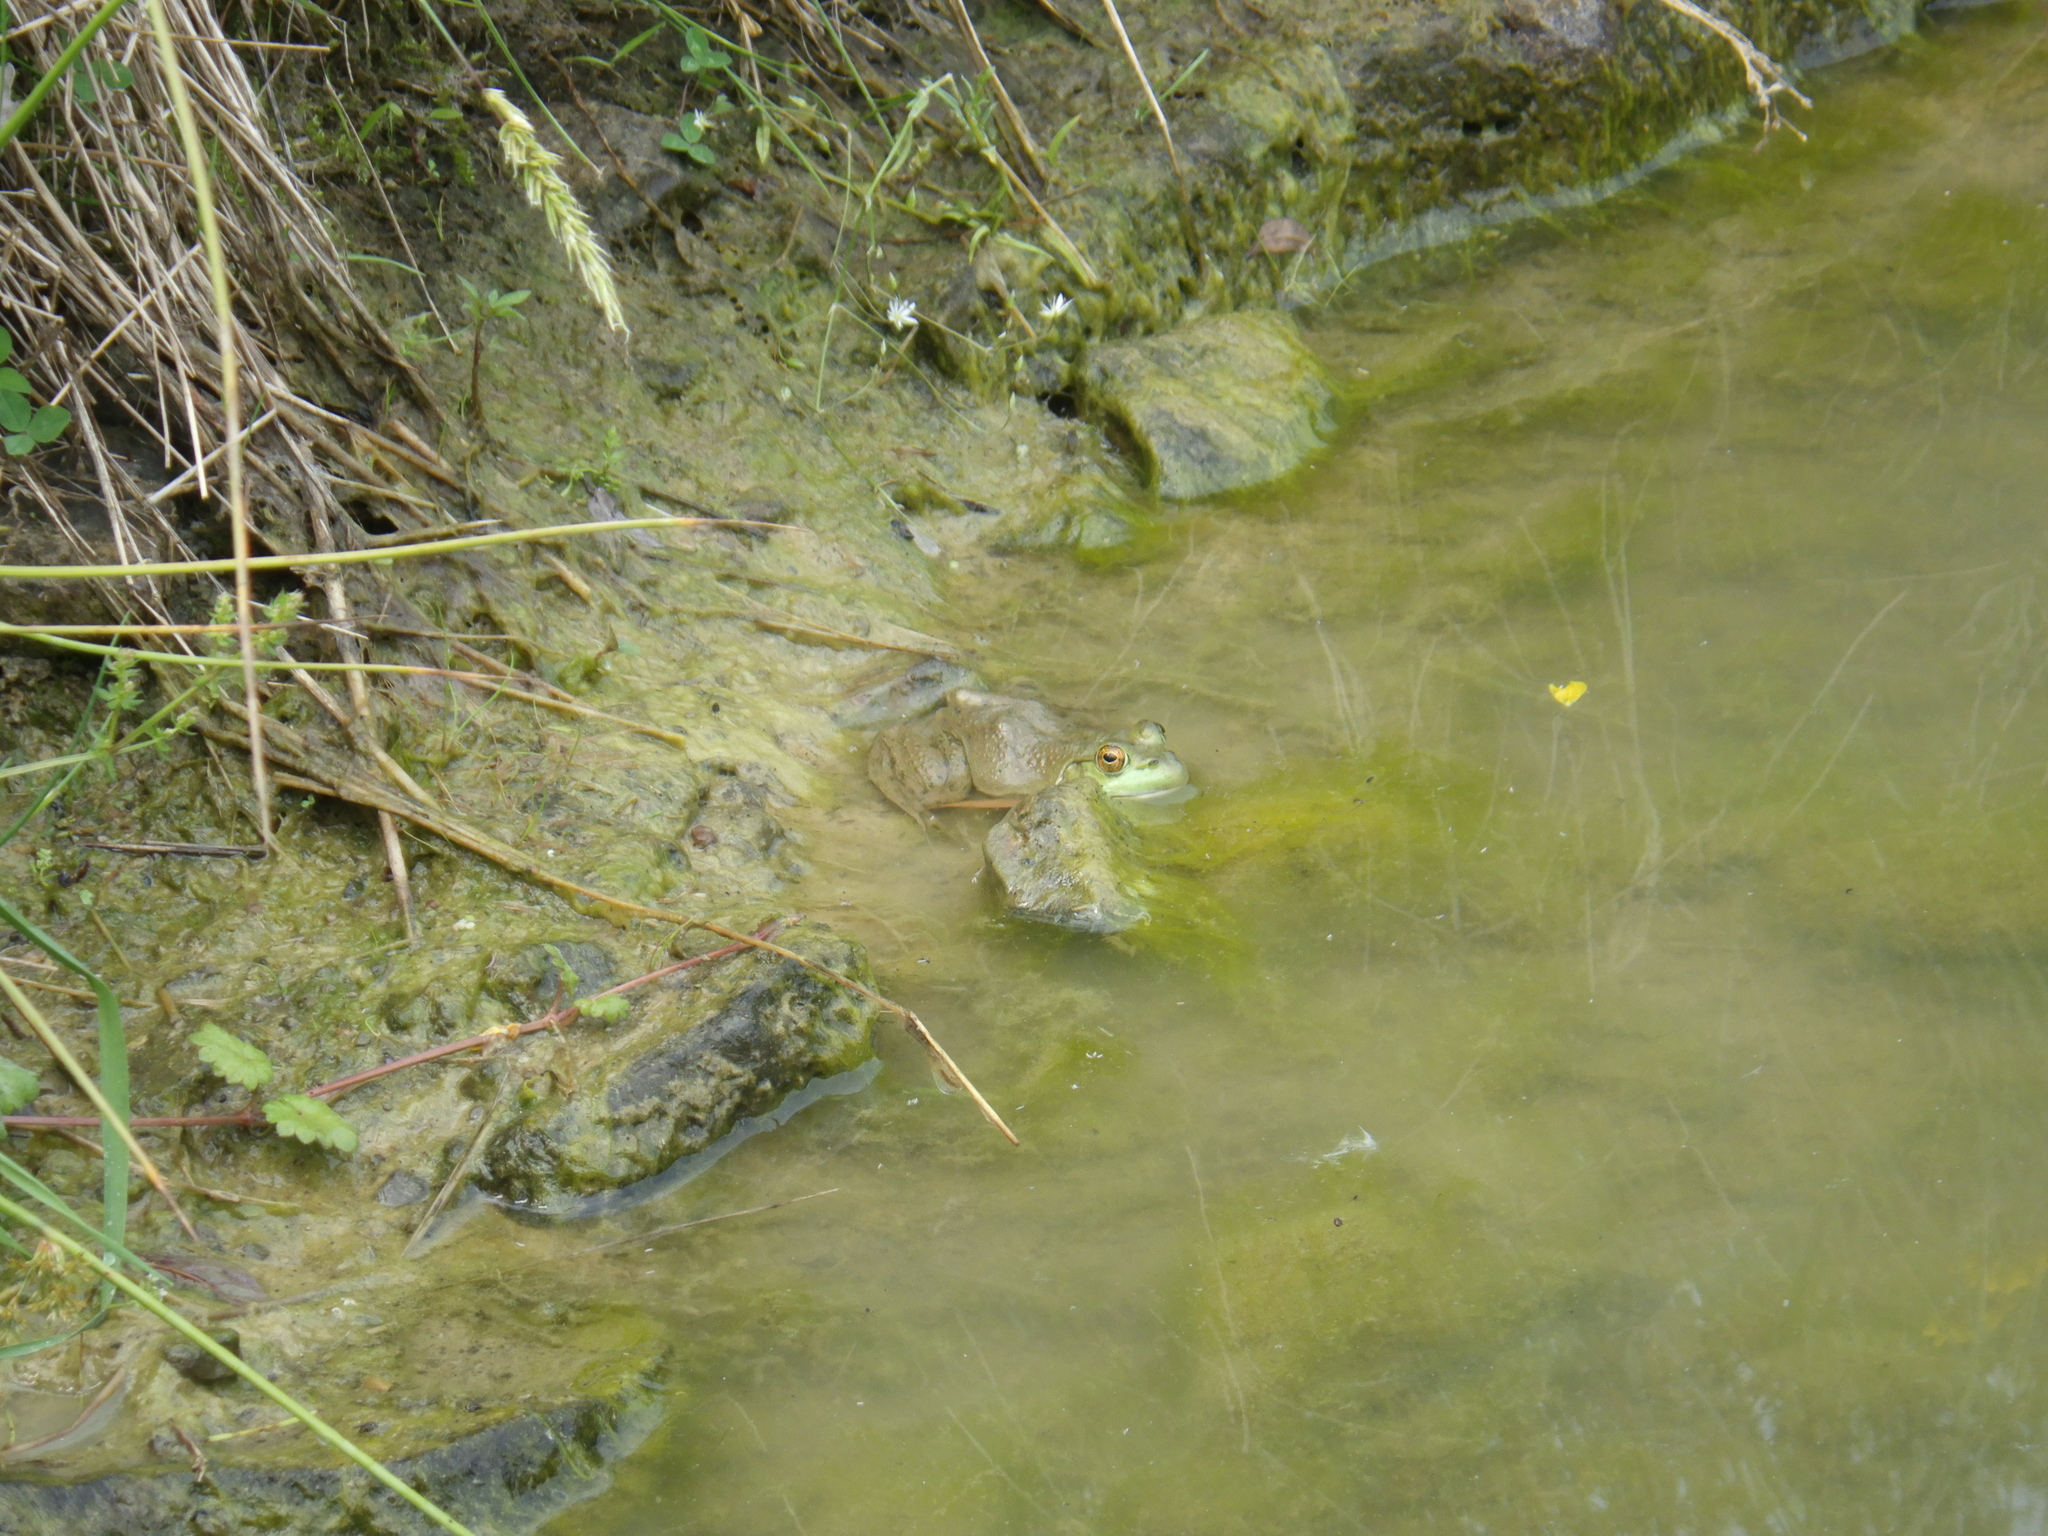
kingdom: Animalia
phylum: Chordata
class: Amphibia
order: Anura
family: Ranidae
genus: Lithobates
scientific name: Lithobates catesbeianus
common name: American bullfrog
